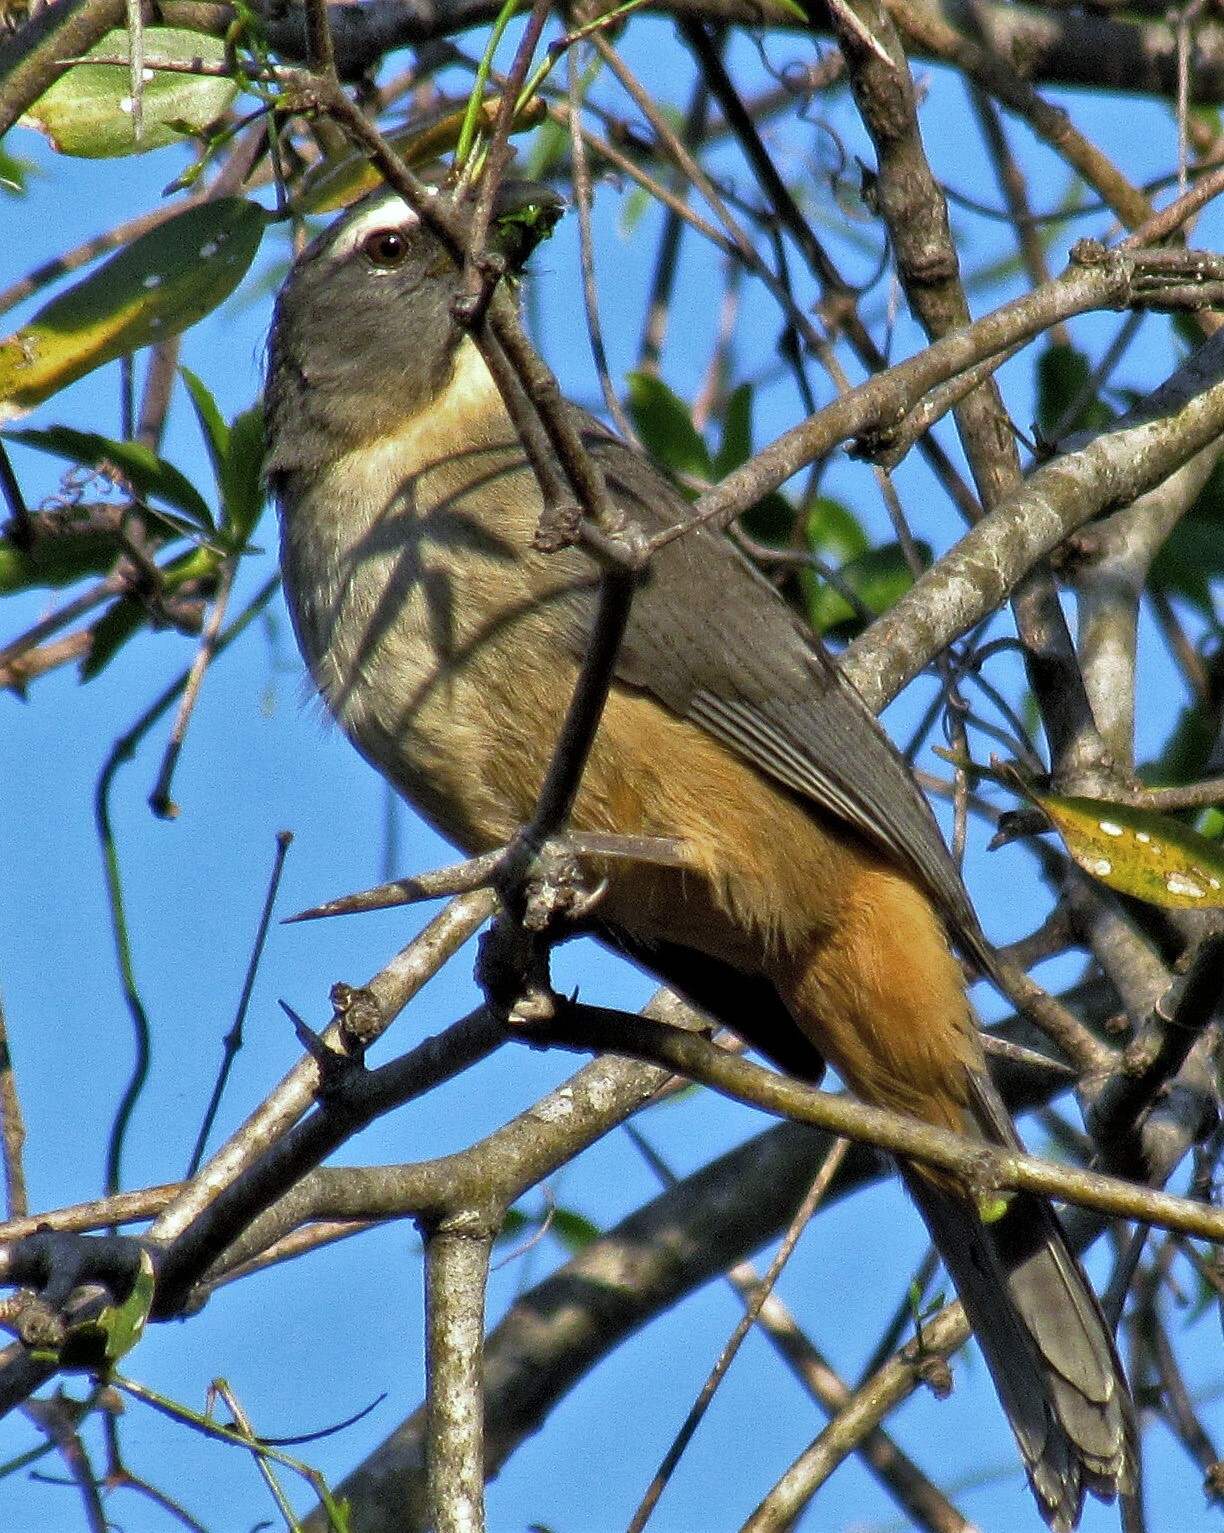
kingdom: Animalia
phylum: Chordata
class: Aves
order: Passeriformes
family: Thraupidae
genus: Saltator
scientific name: Saltator coerulescens
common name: Grayish saltator
